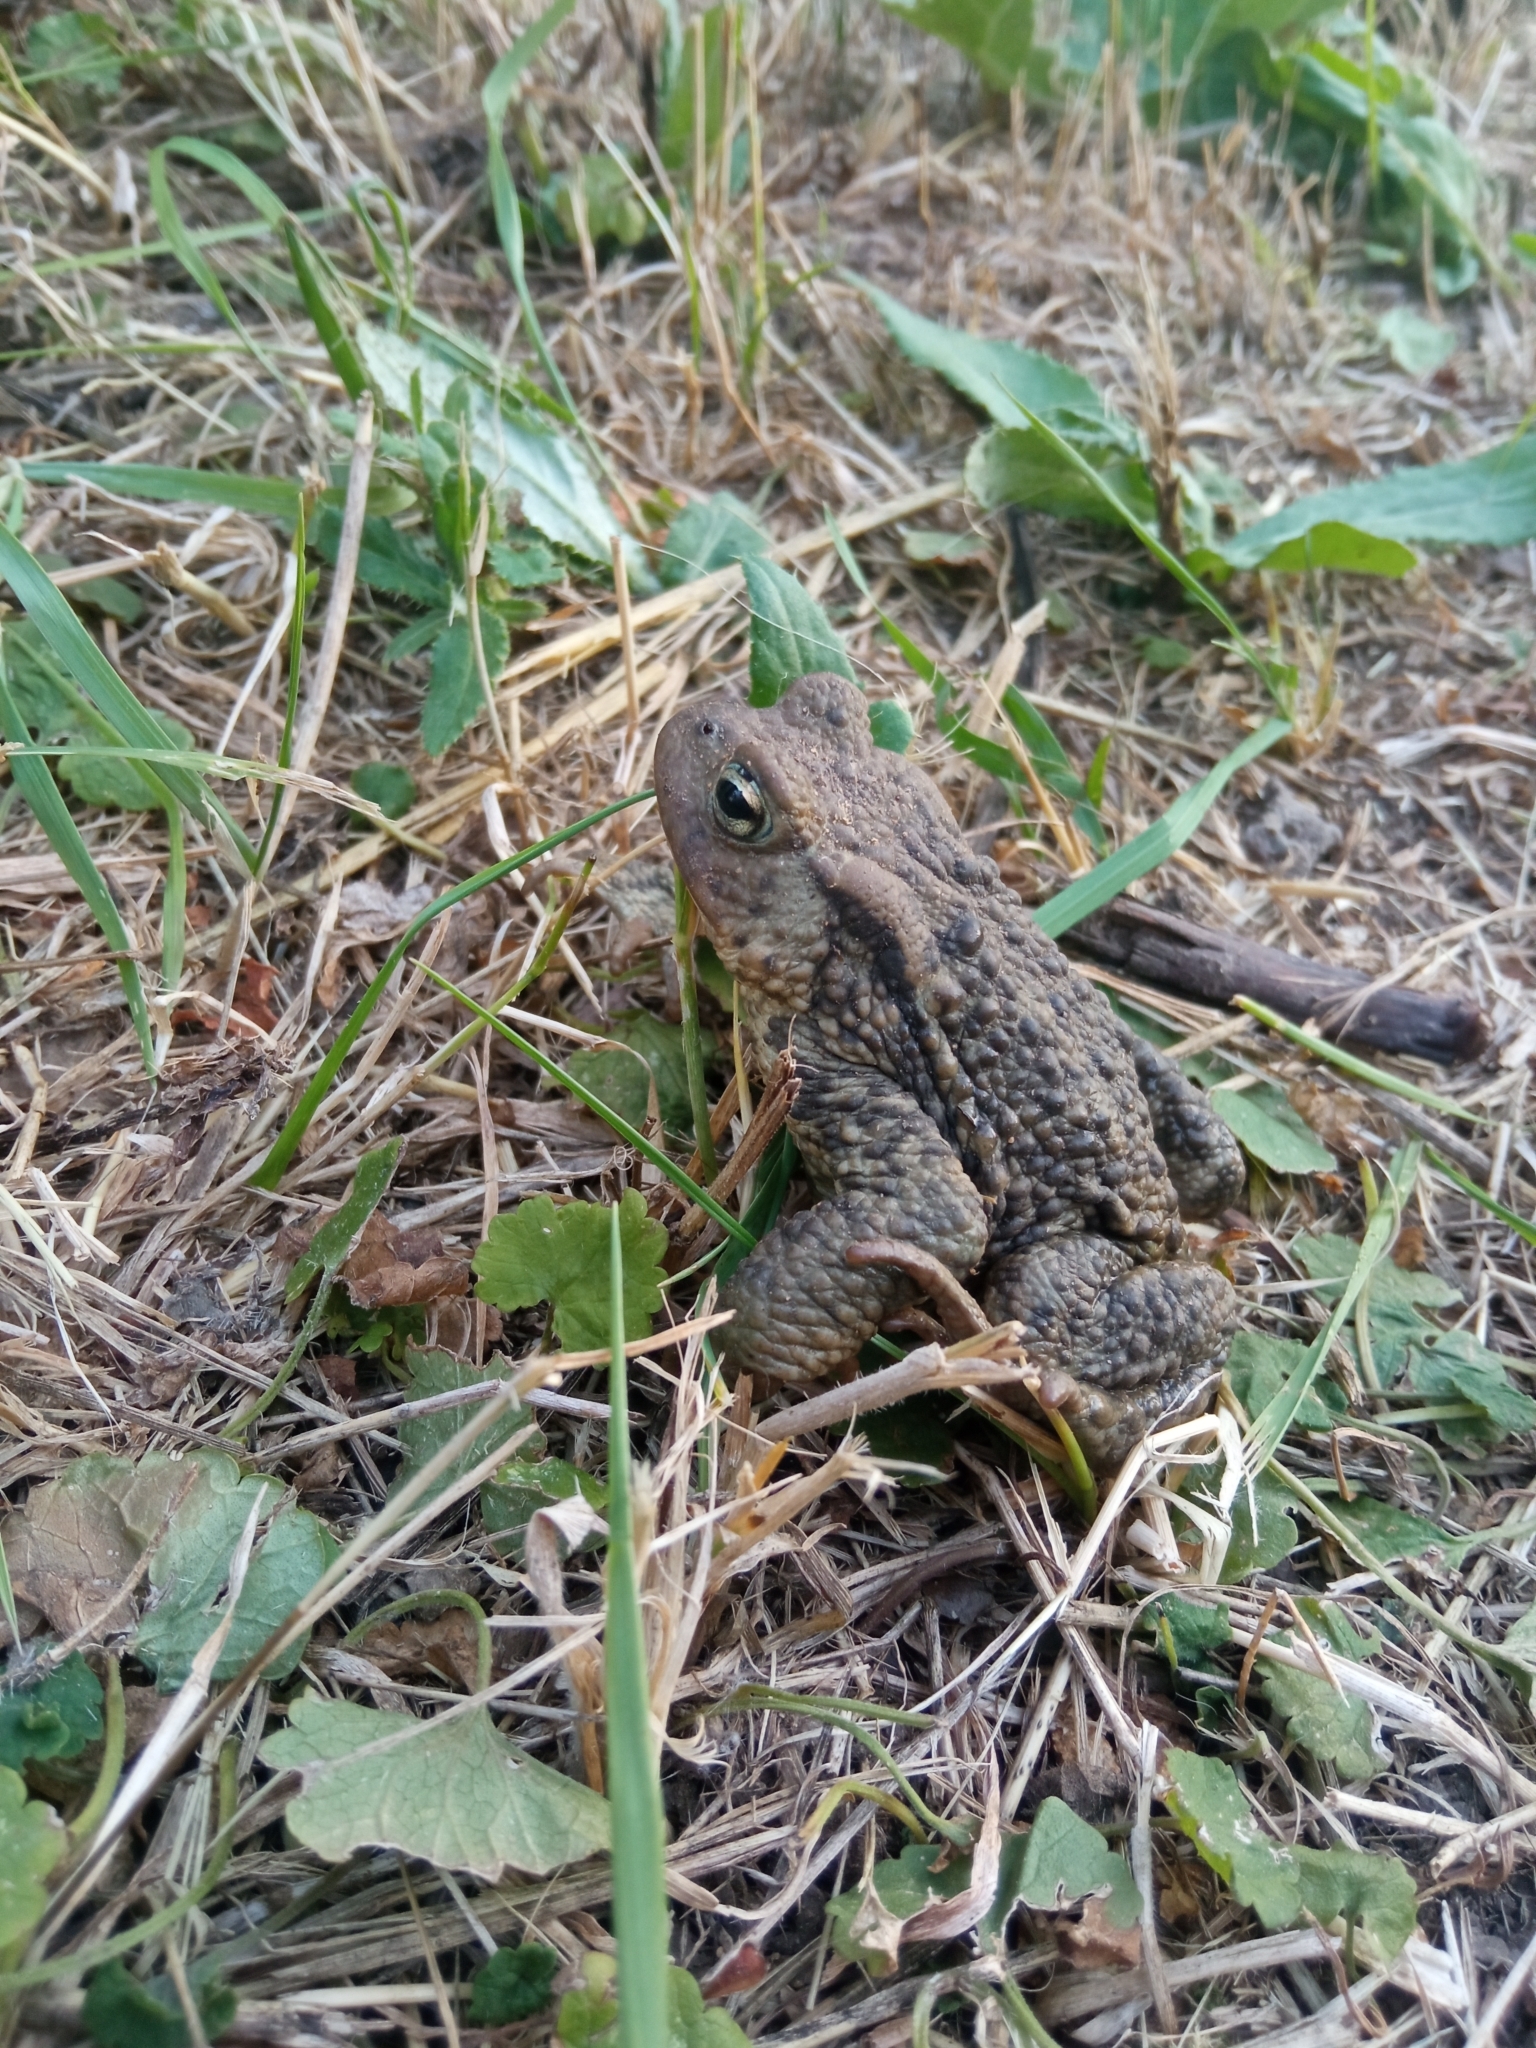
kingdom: Animalia
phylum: Chordata
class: Amphibia
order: Anura
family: Bufonidae
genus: Bufo
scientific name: Bufo bufo
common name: Common toad
